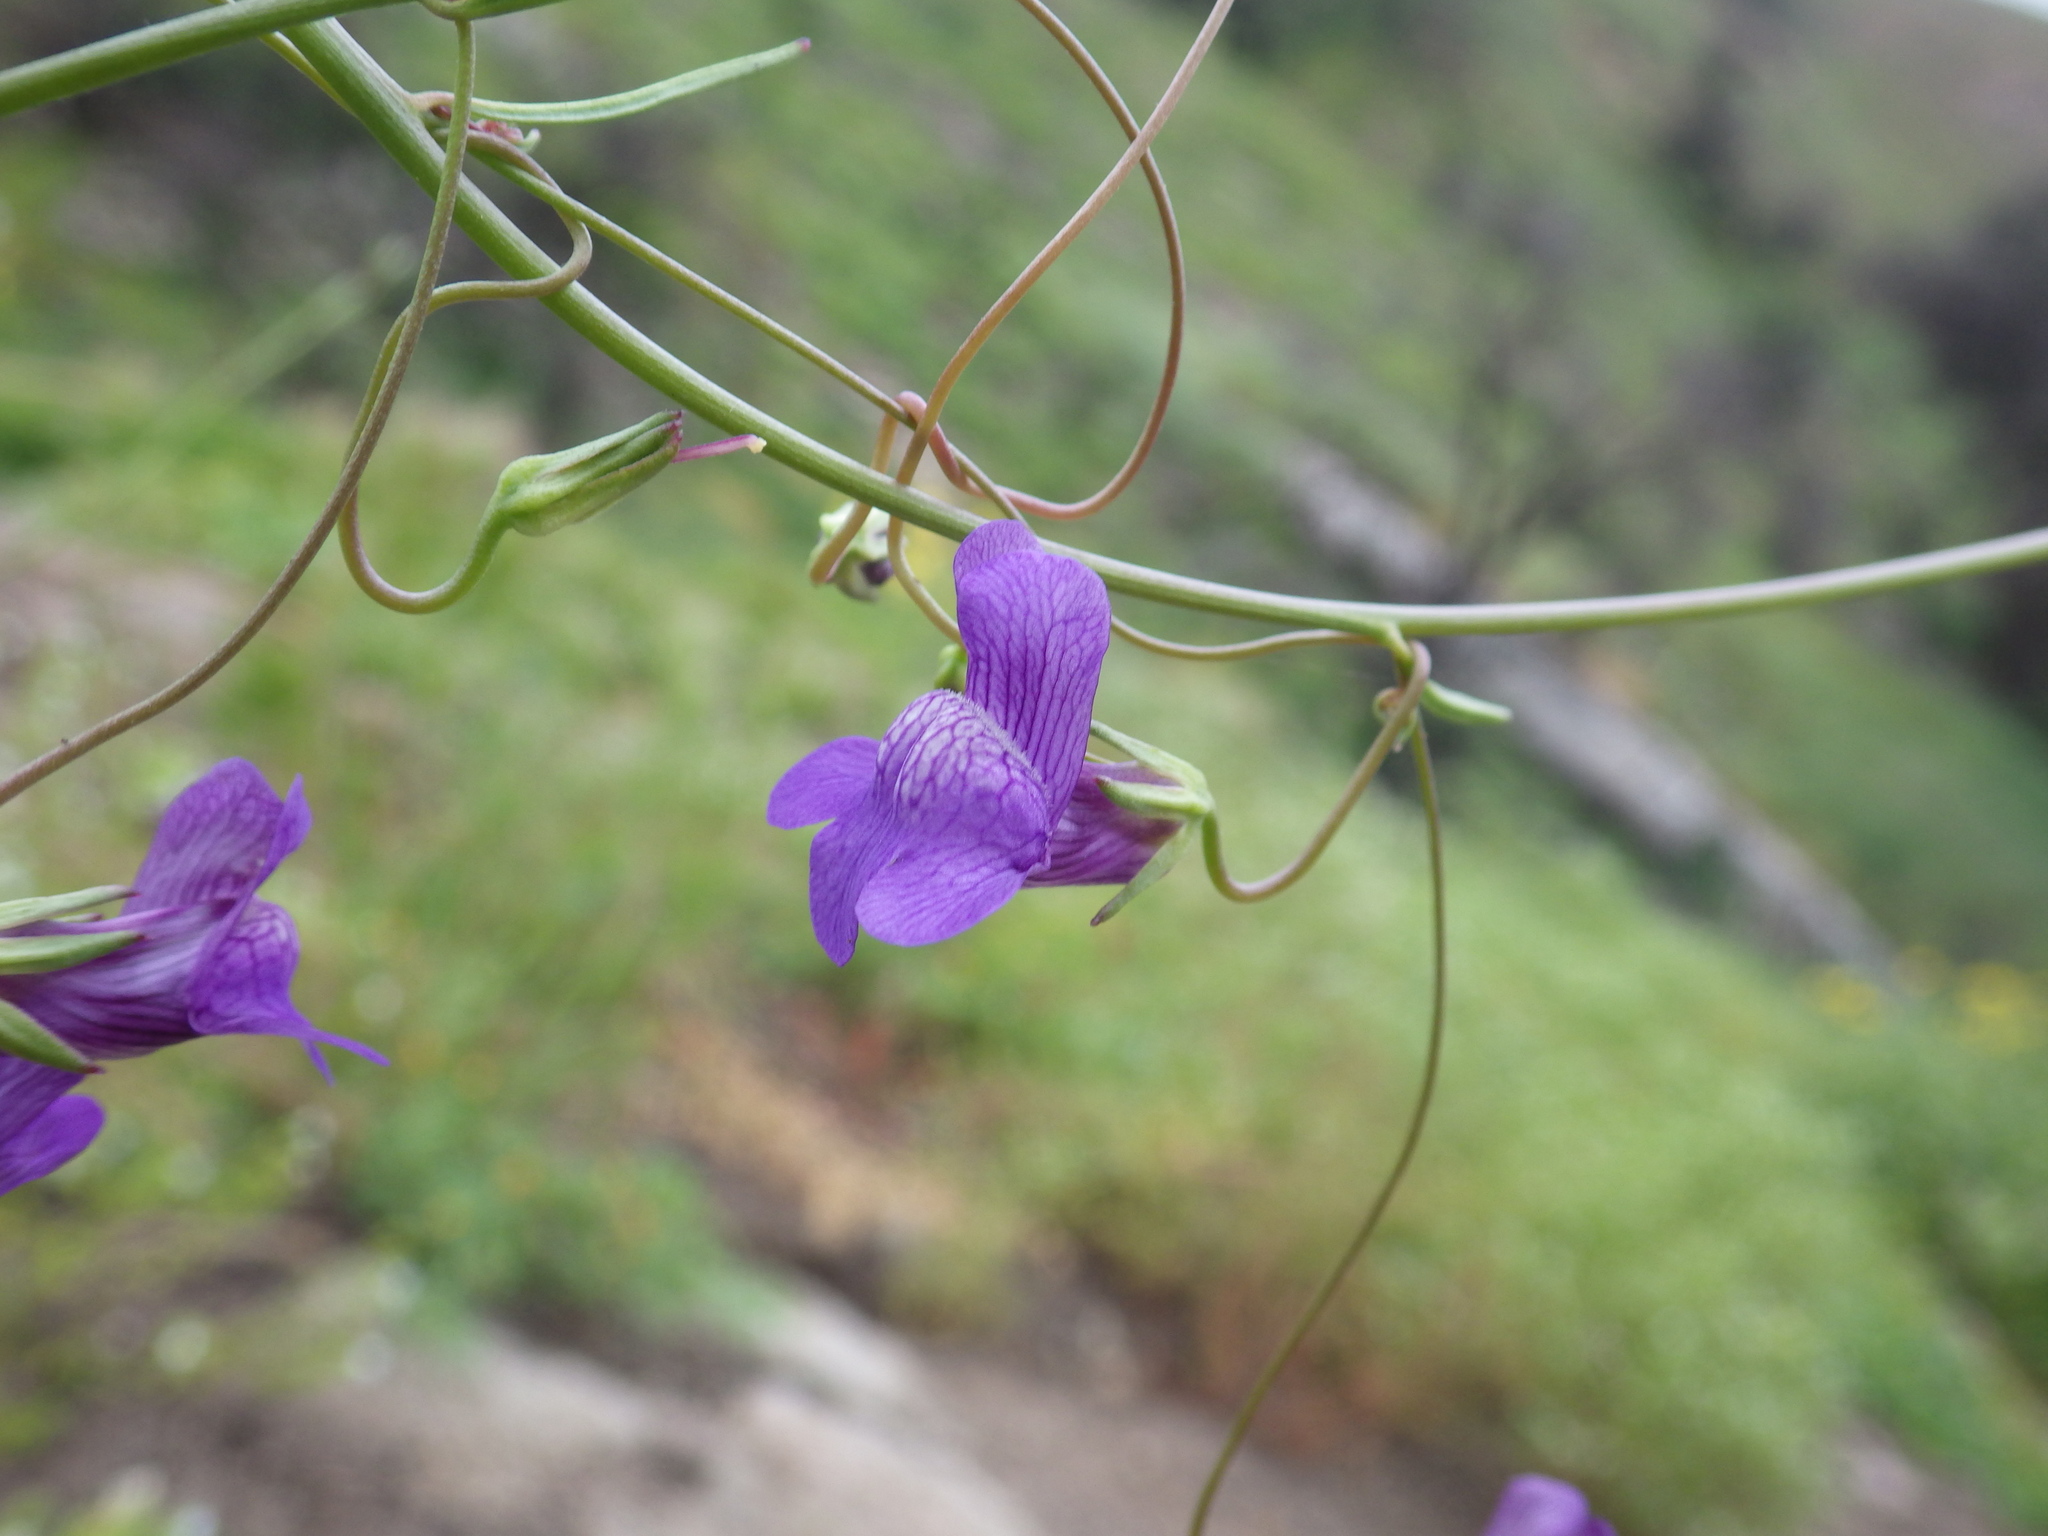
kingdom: Plantae
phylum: Tracheophyta
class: Magnoliopsida
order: Lamiales
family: Plantaginaceae
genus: Neogaerrhinum
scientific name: Neogaerrhinum strictum
